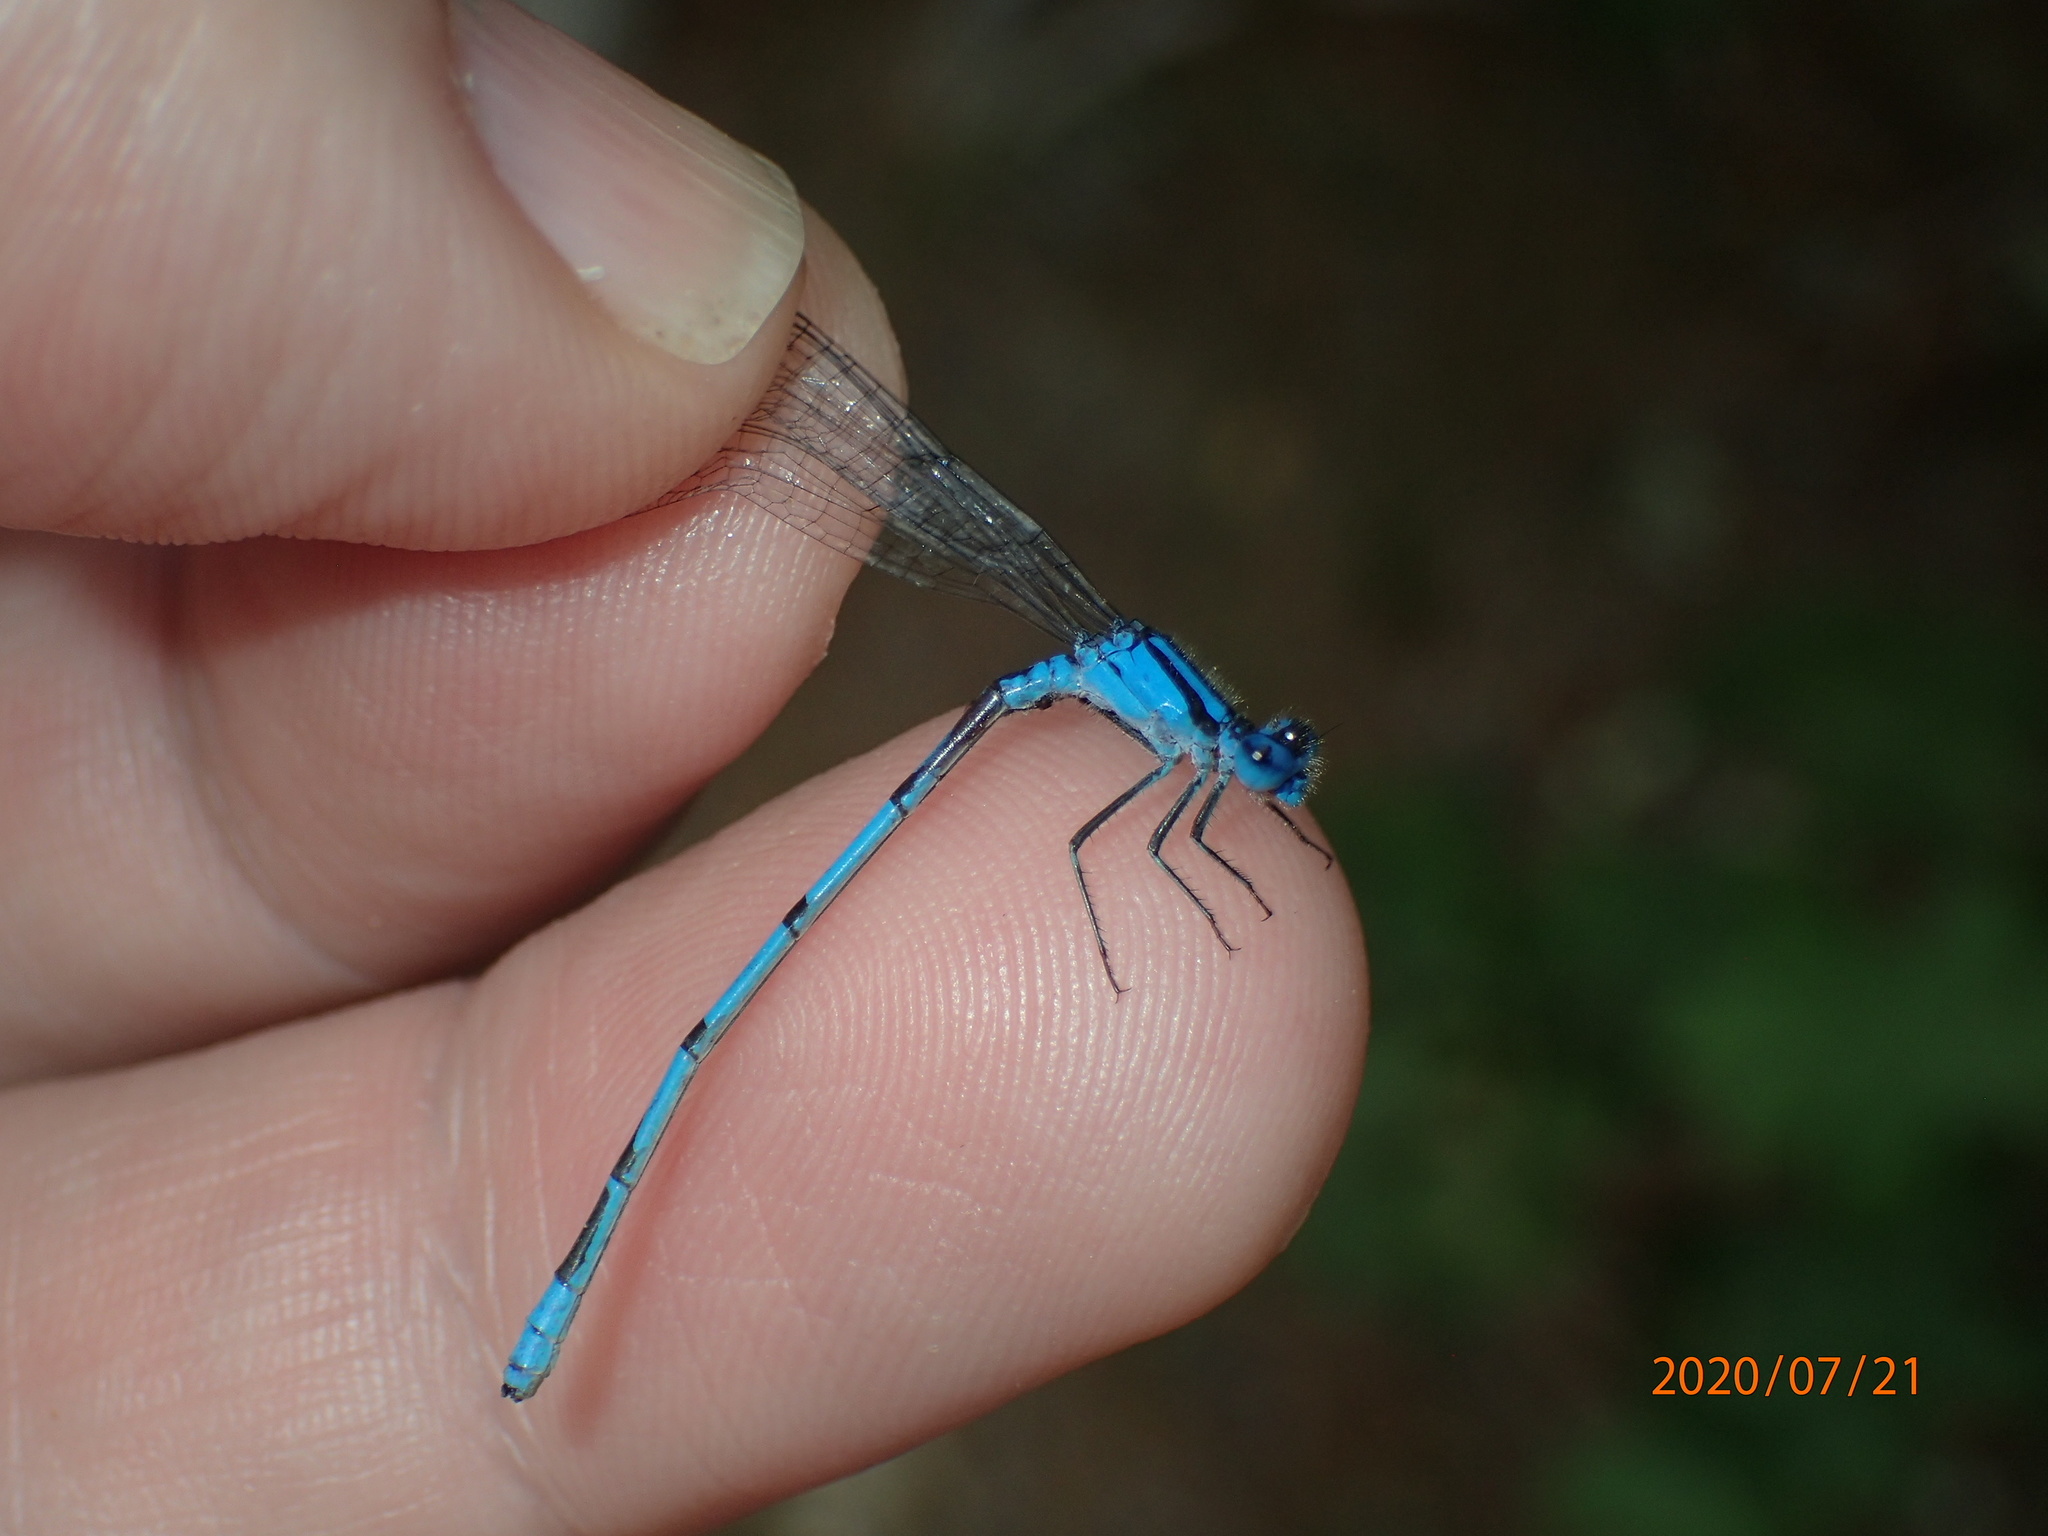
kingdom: Animalia
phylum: Arthropoda
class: Insecta
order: Odonata
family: Coenagrionidae
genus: Enallagma
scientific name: Enallagma doubledayi
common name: Atlantic bluet
